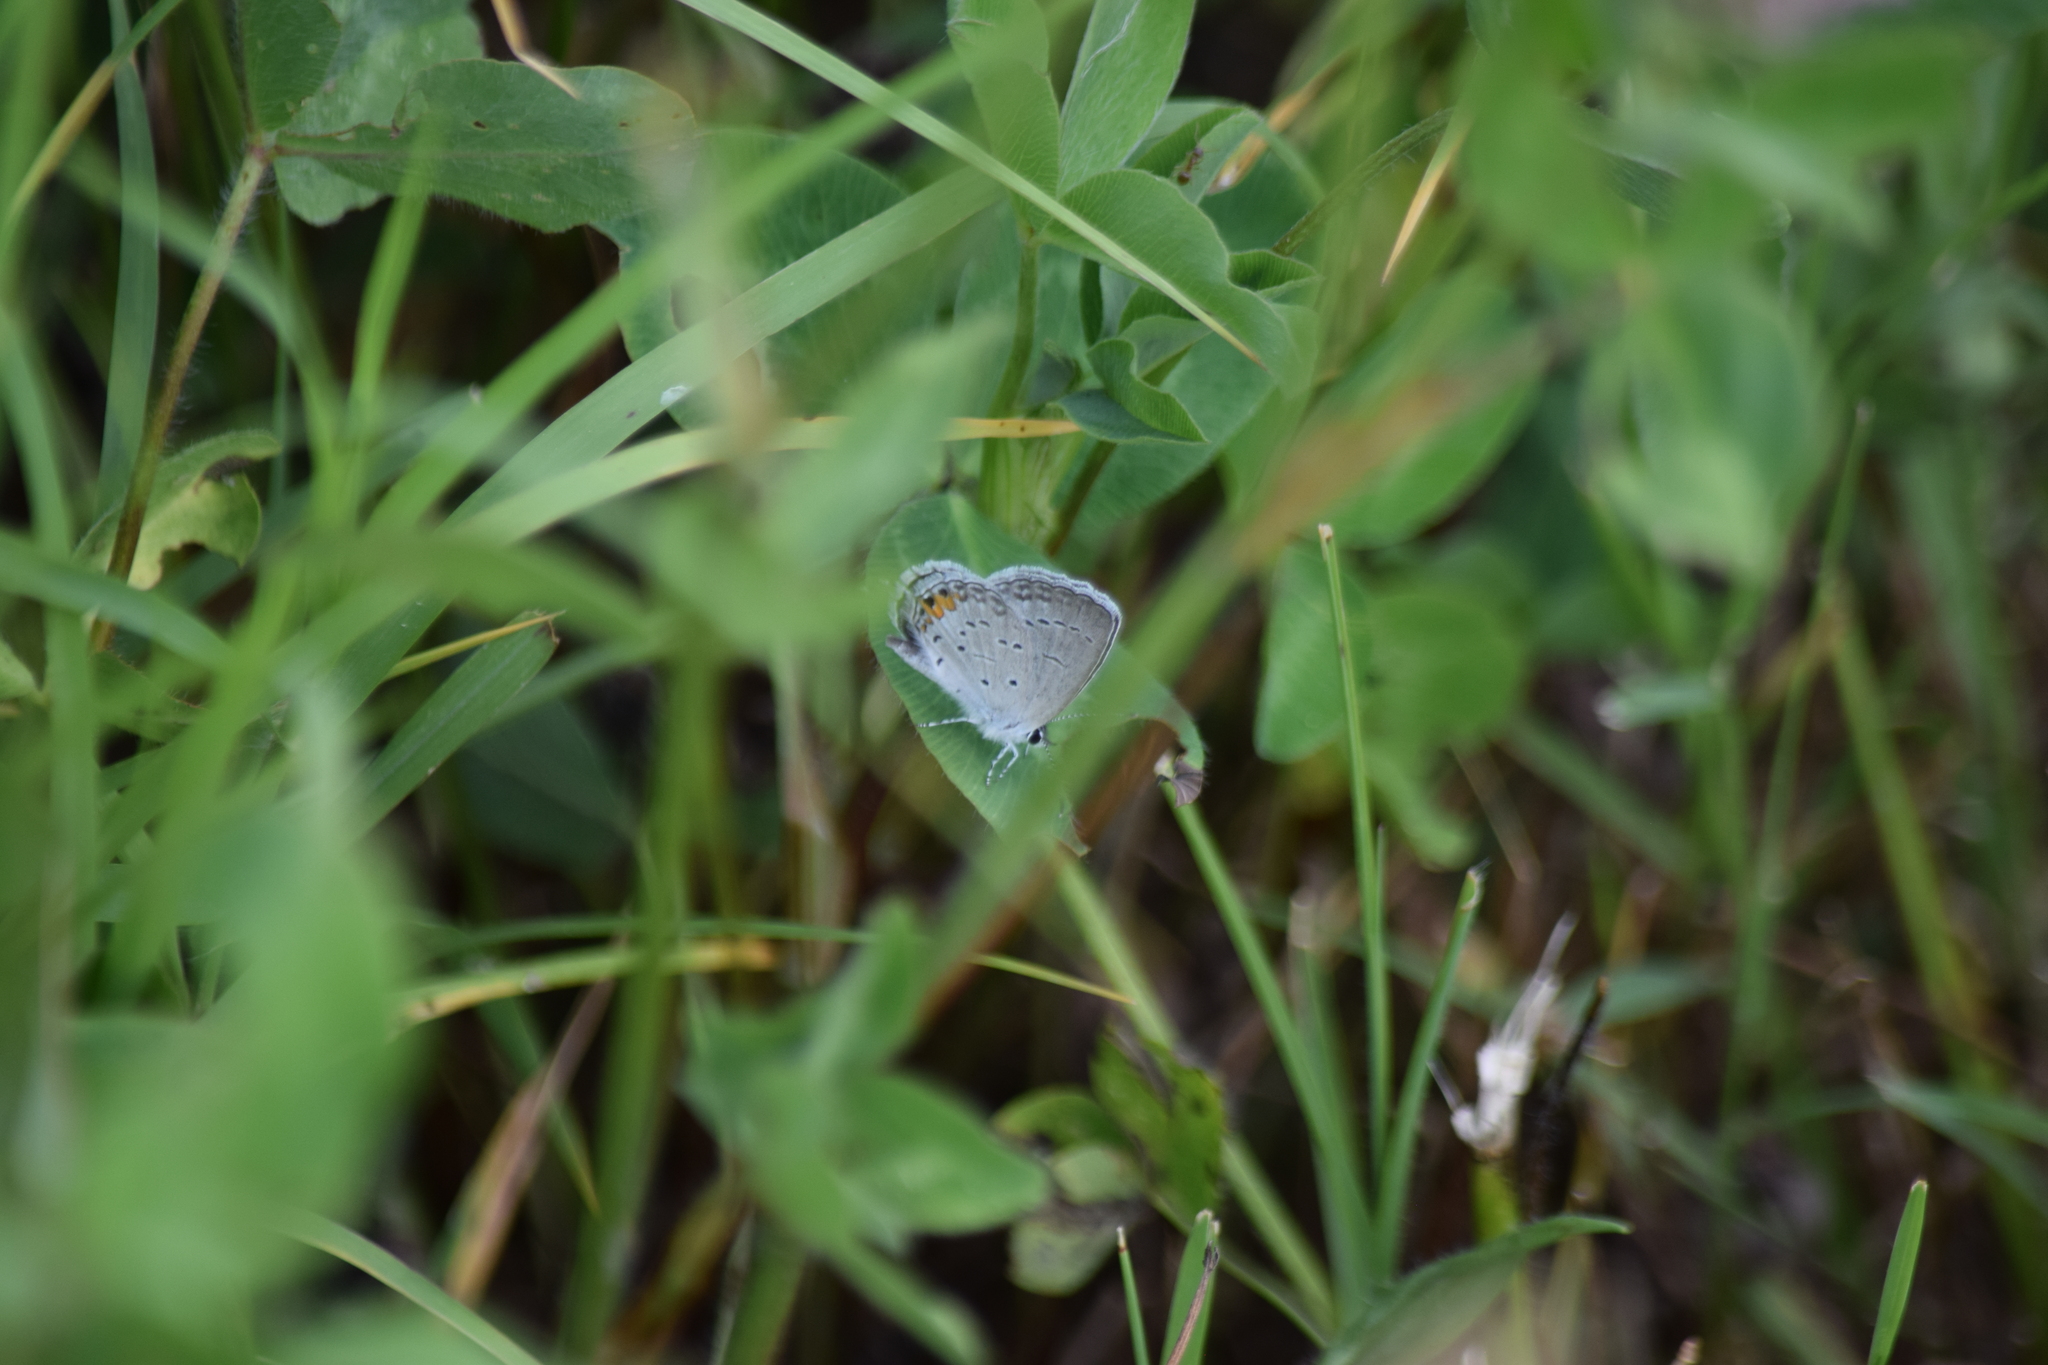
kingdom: Animalia
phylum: Arthropoda
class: Insecta
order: Lepidoptera
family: Lycaenidae
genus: Elkalyce
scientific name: Elkalyce comyntas
